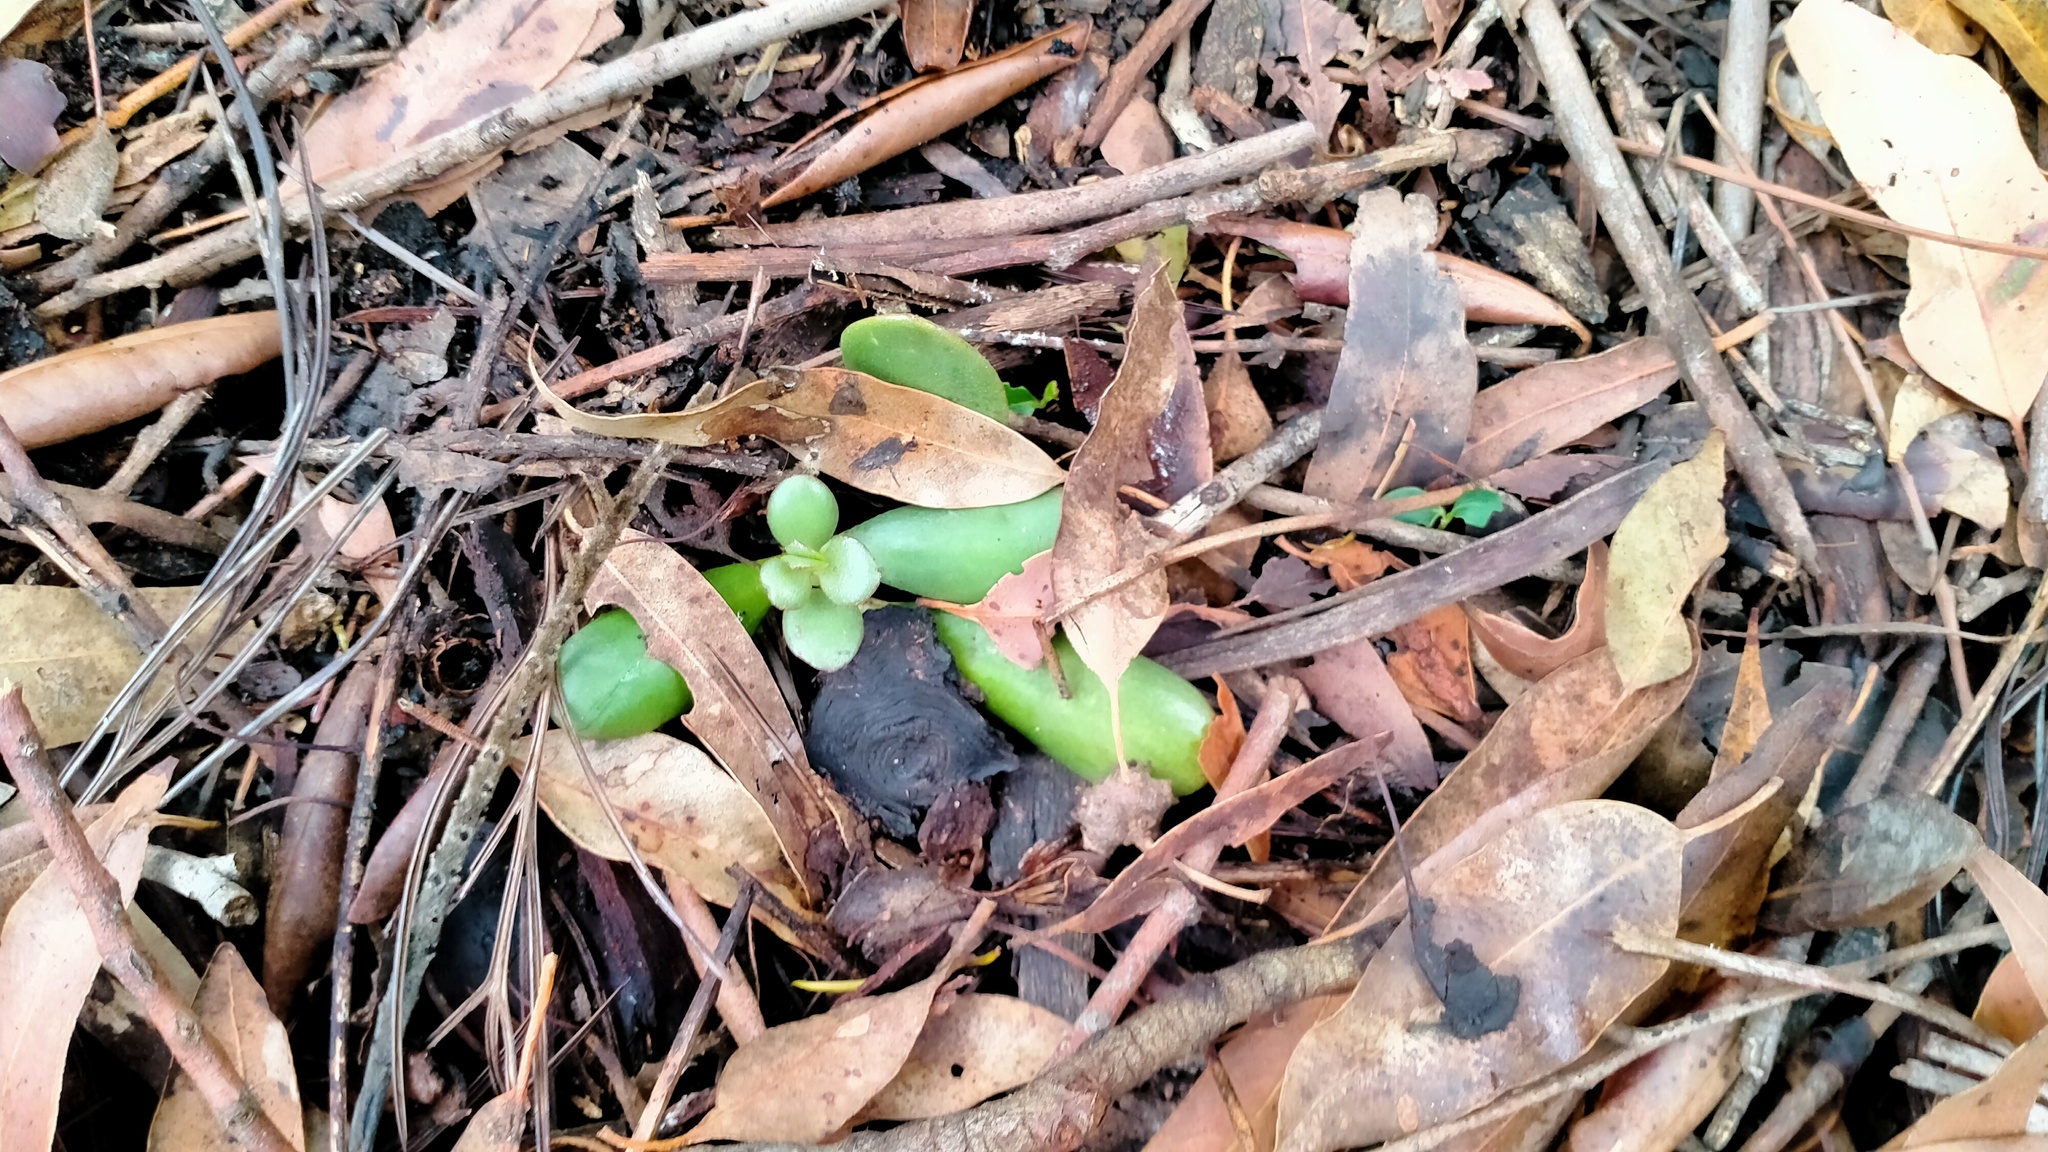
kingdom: Plantae
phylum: Tracheophyta
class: Magnoliopsida
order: Saxifragales
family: Crassulaceae
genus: Crassula
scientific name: Crassula ovata
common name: Jade plant
